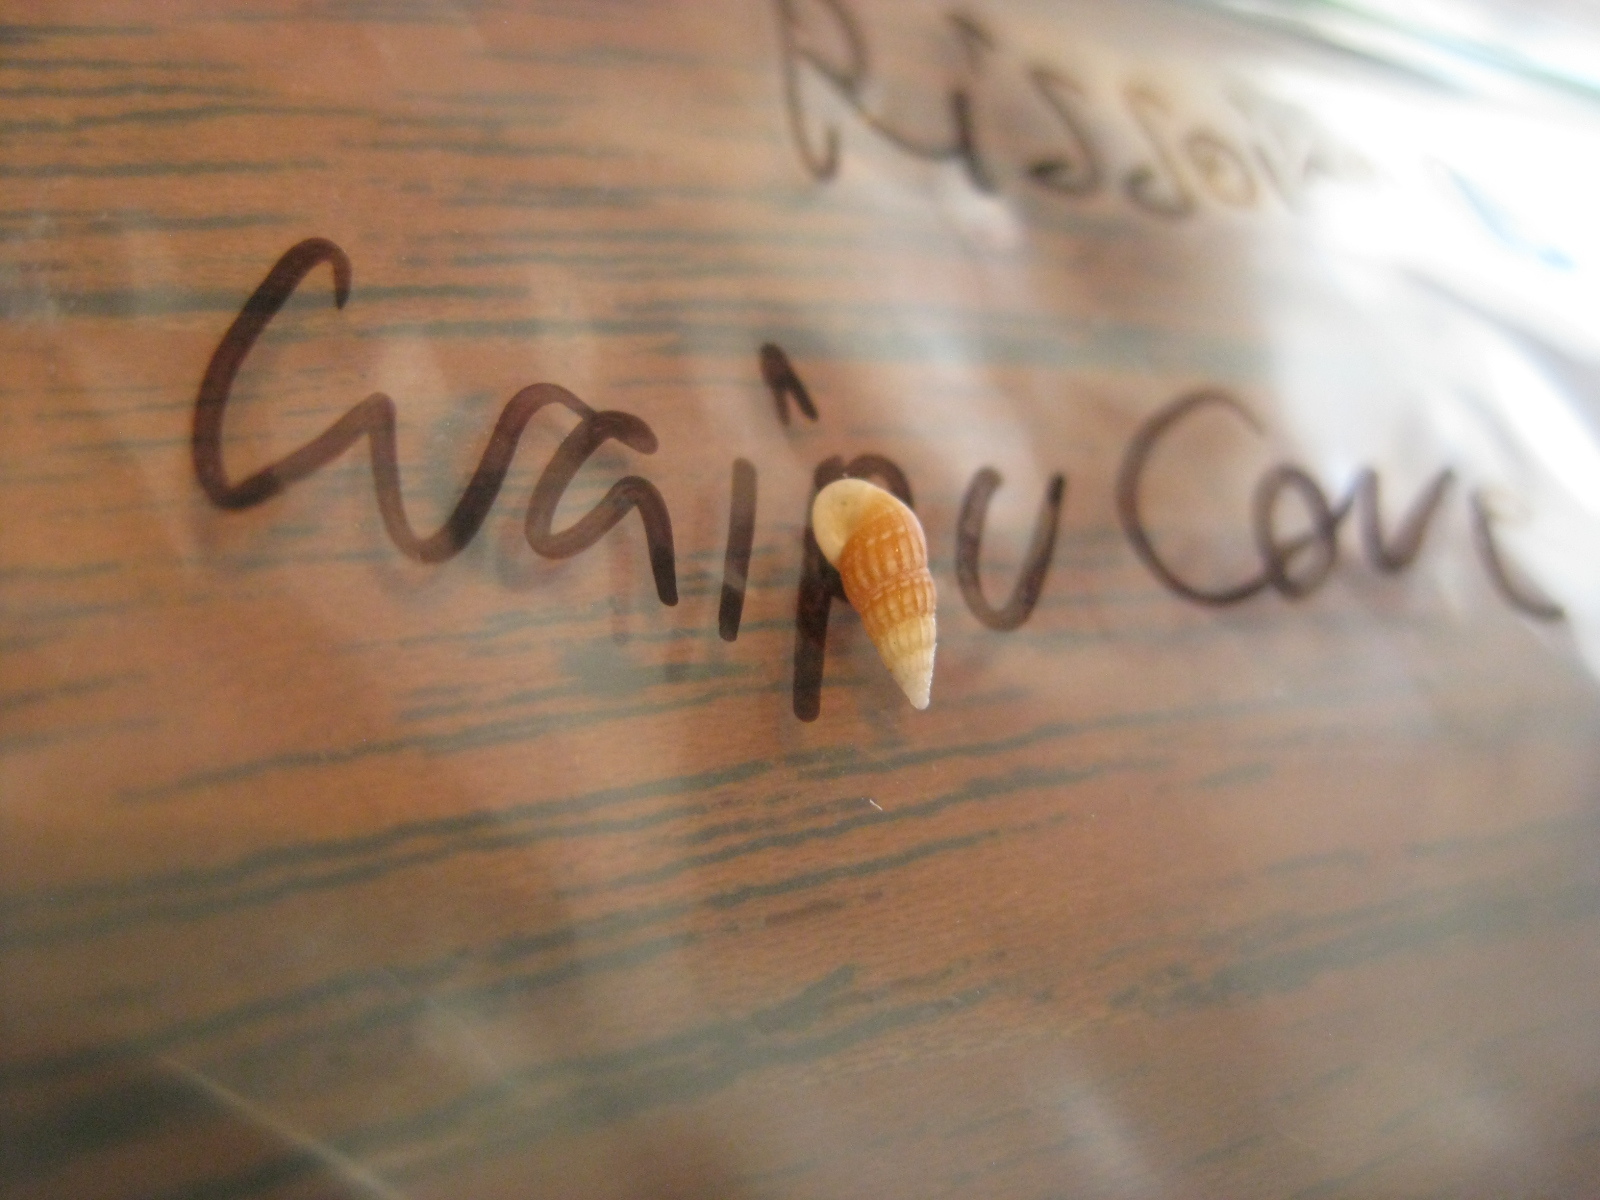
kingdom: Animalia
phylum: Mollusca
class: Gastropoda
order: Littorinimorpha
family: Rissoinidae
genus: Rissoina
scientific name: Rissoina chathamensis
